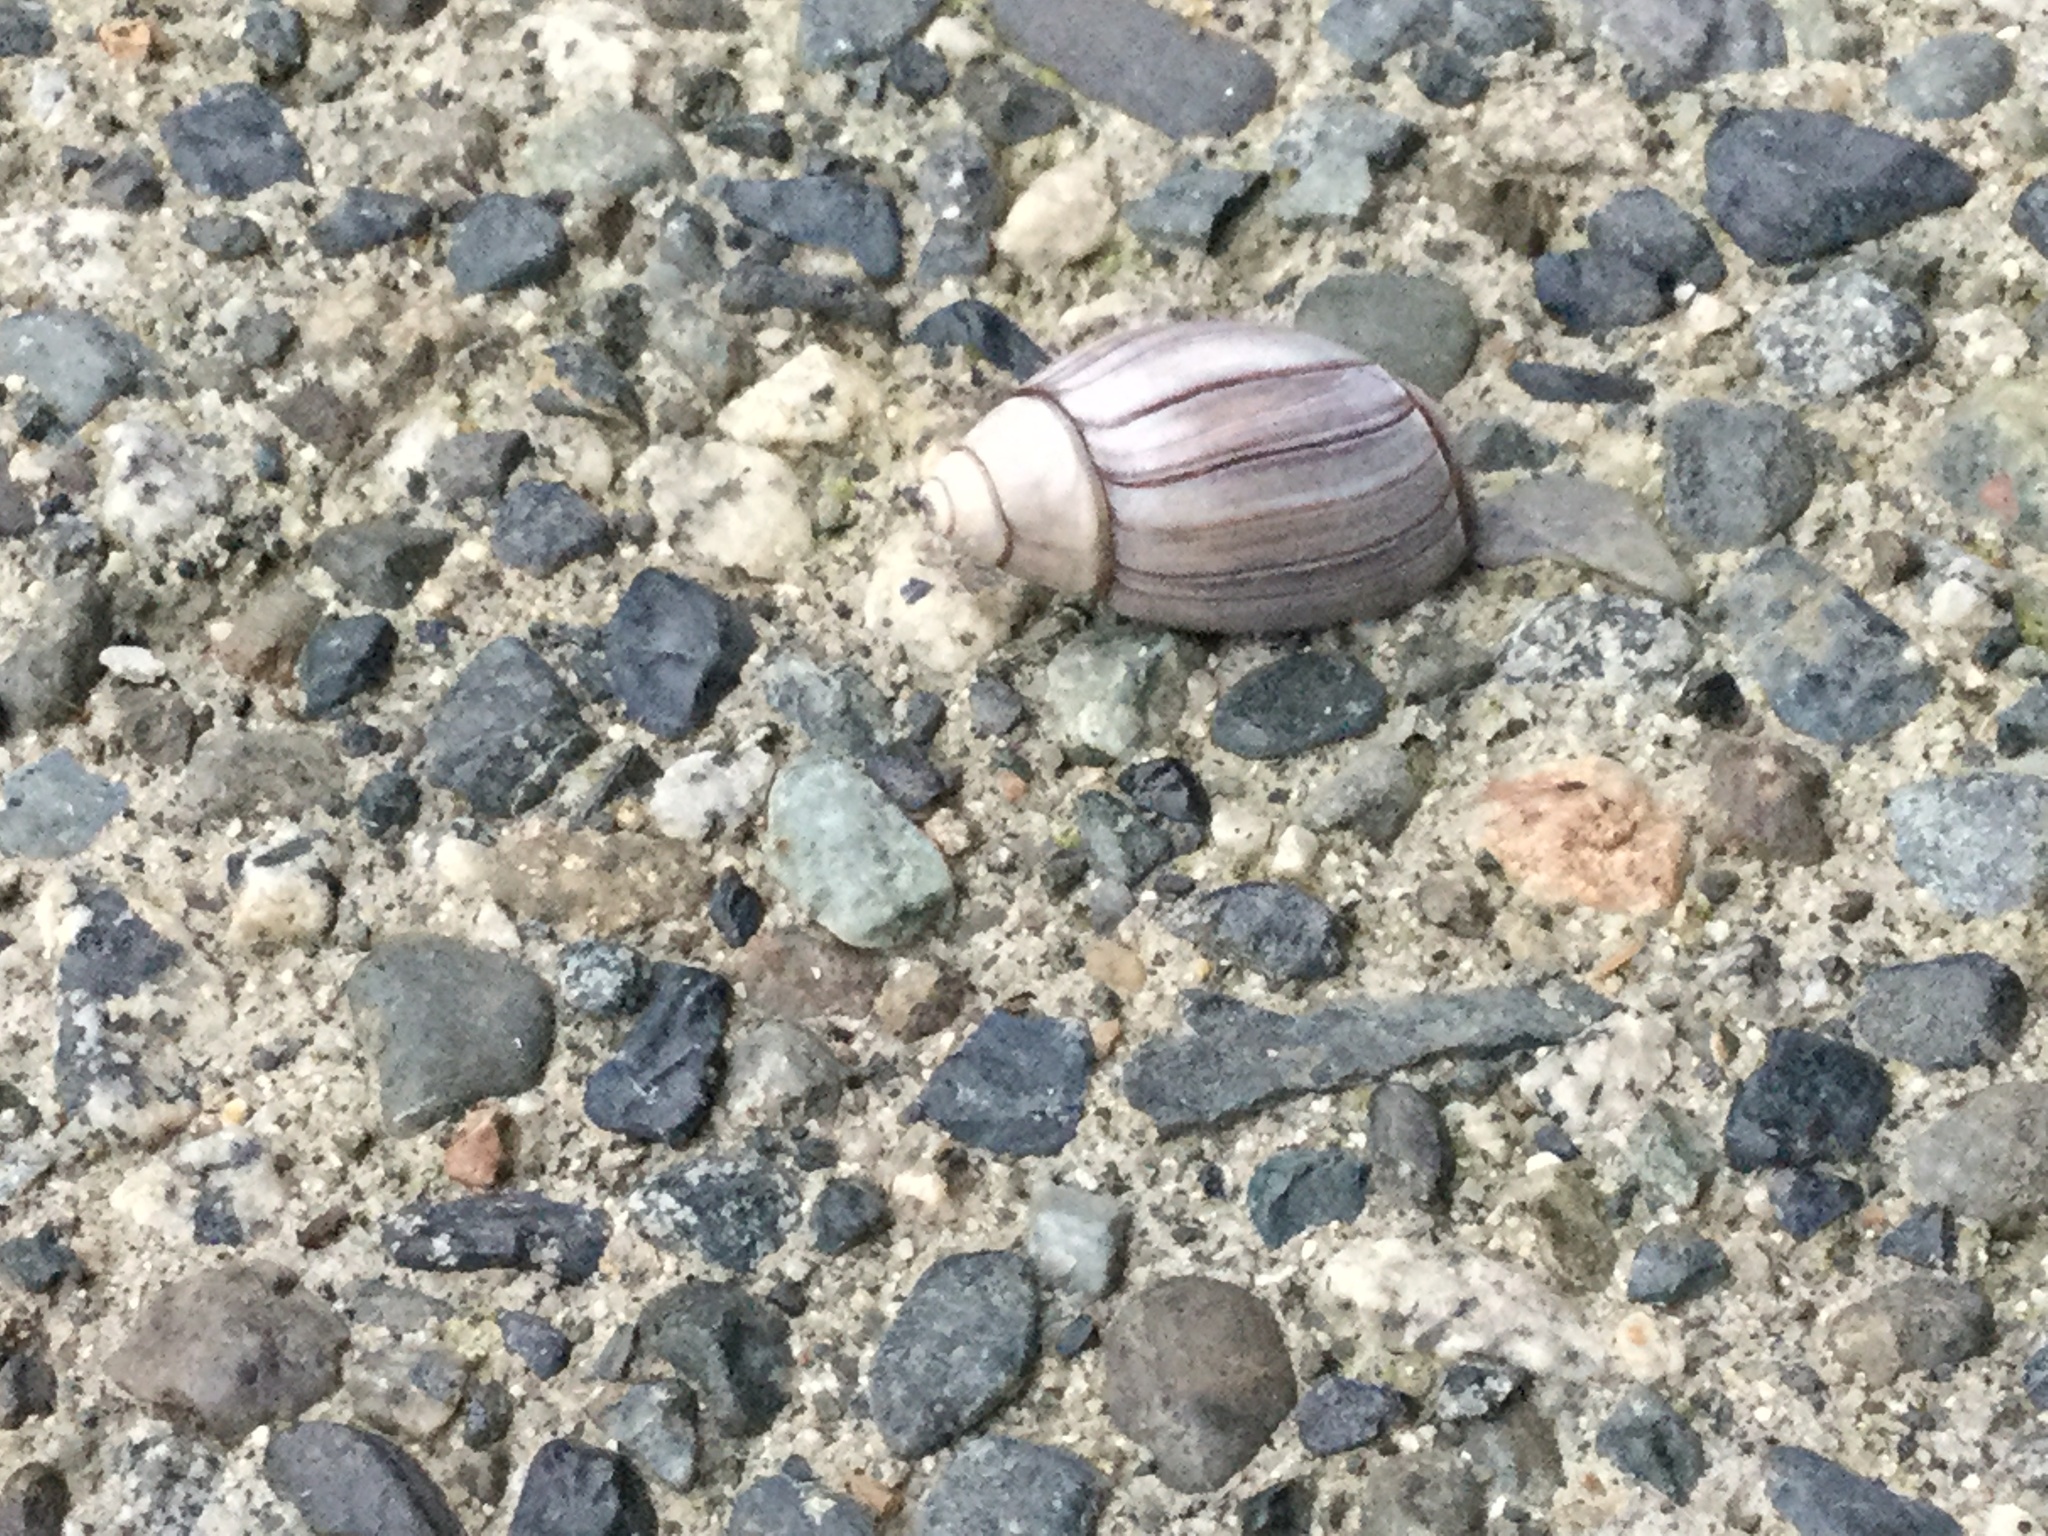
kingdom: Animalia
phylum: Mollusca
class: Gastropoda
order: Neogastropoda
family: Olividae
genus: Callianax
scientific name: Callianax biplicata
